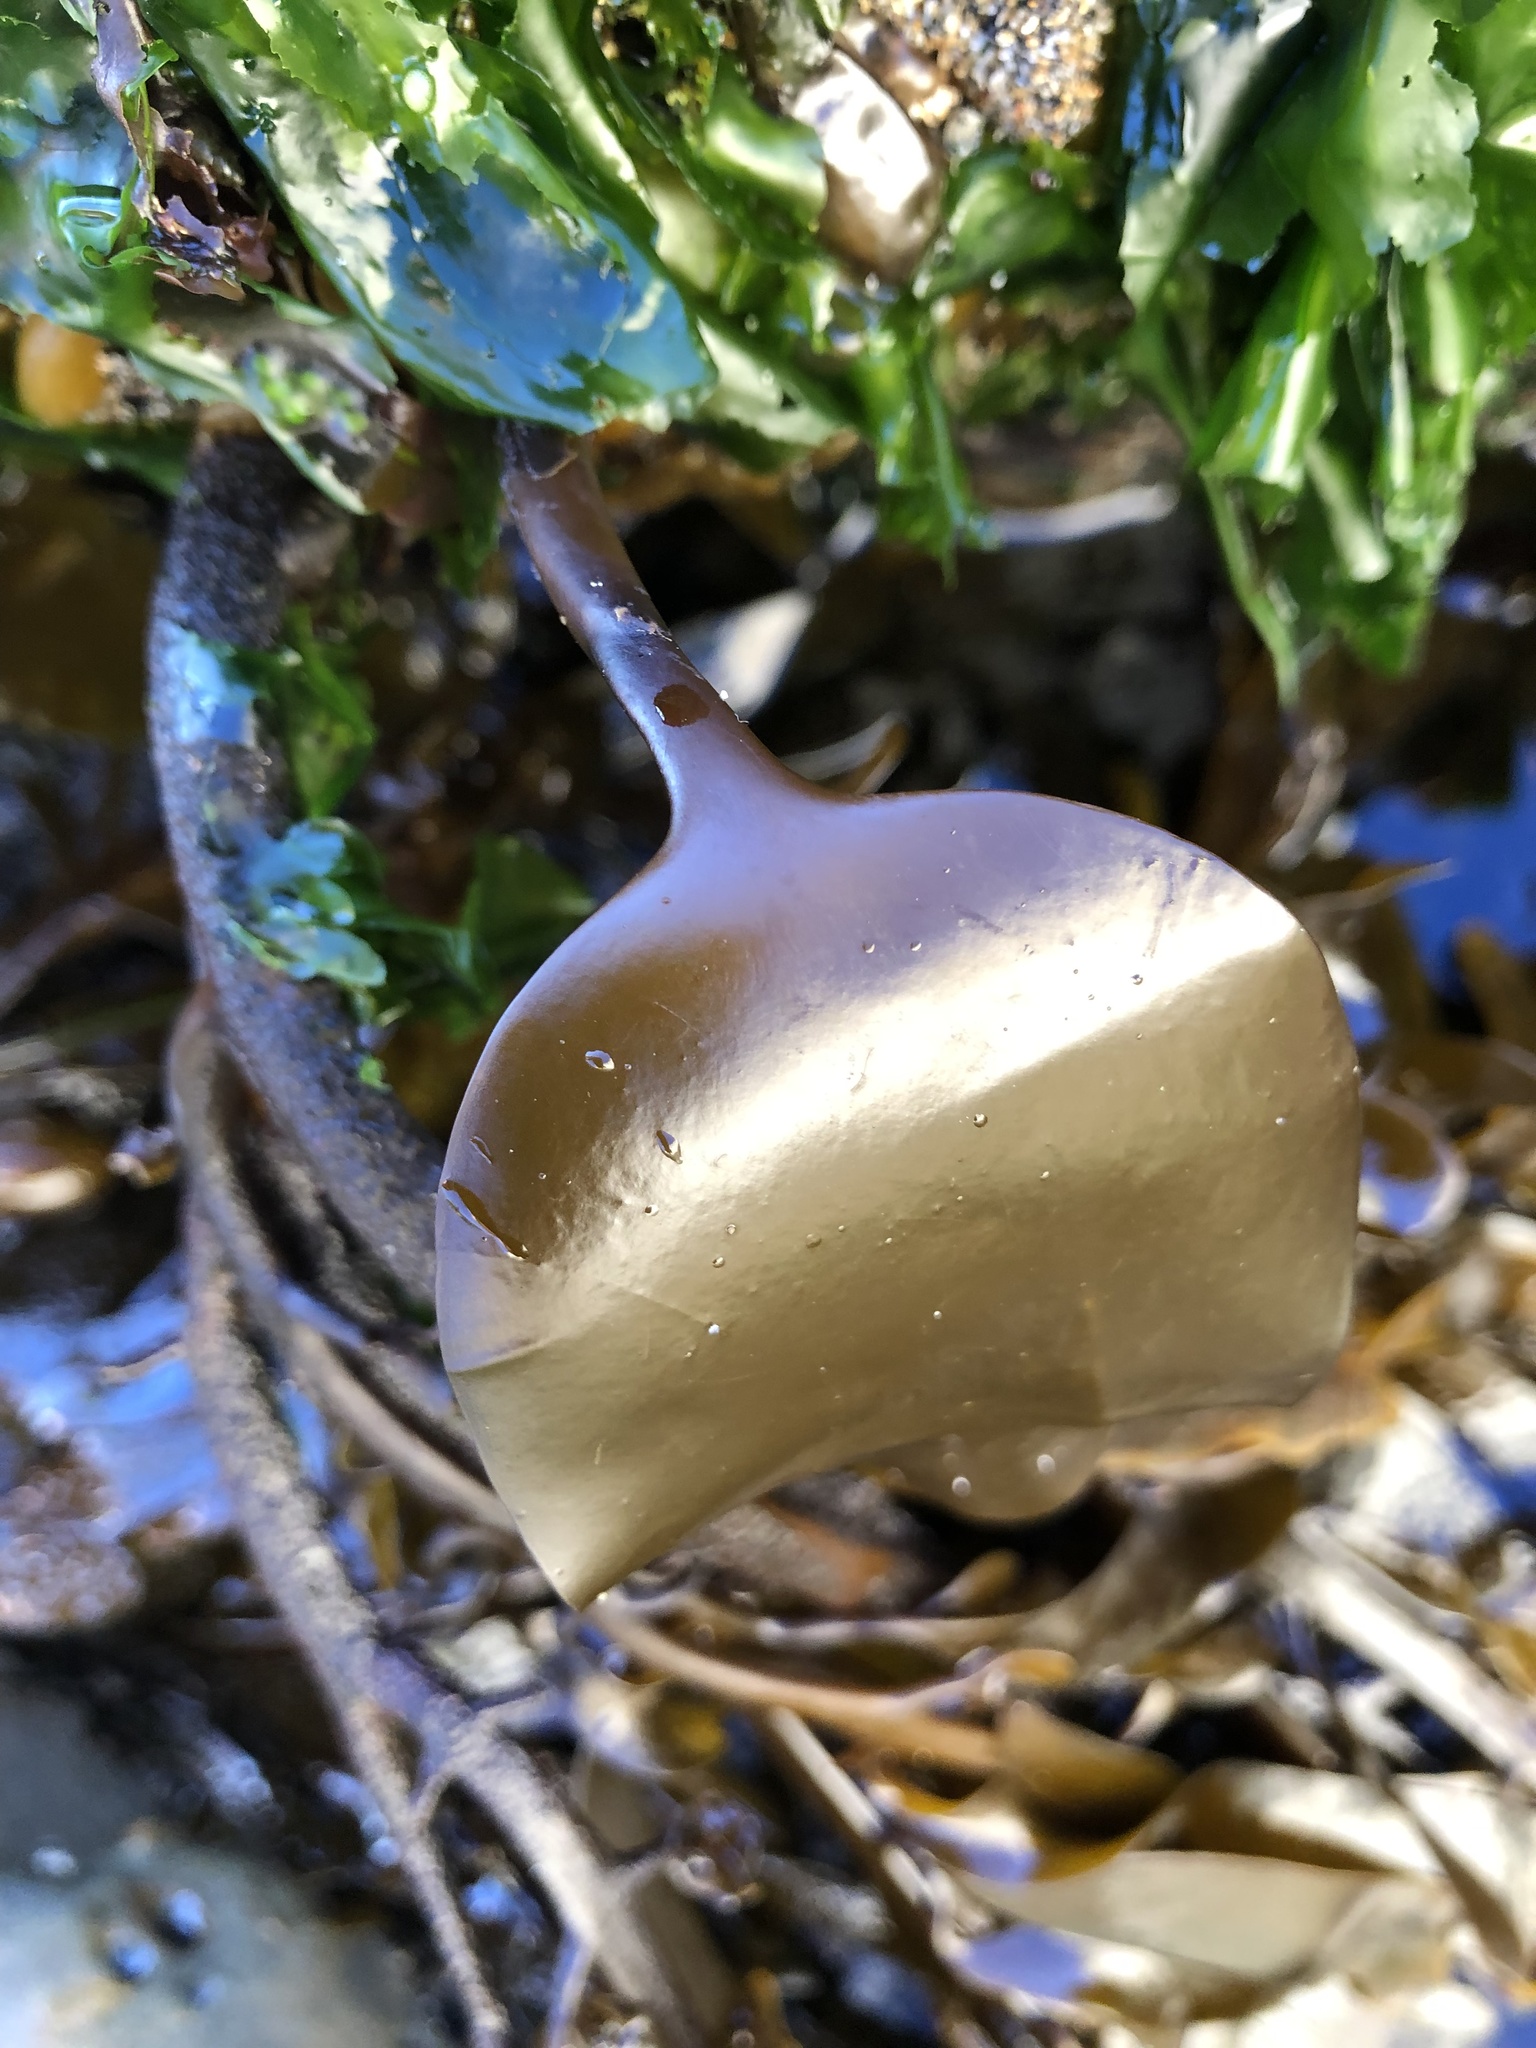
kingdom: Chromista
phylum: Ochrophyta
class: Phaeophyceae
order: Laminariales
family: Laminariaceae
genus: Laminaria
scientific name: Laminaria setchellii
